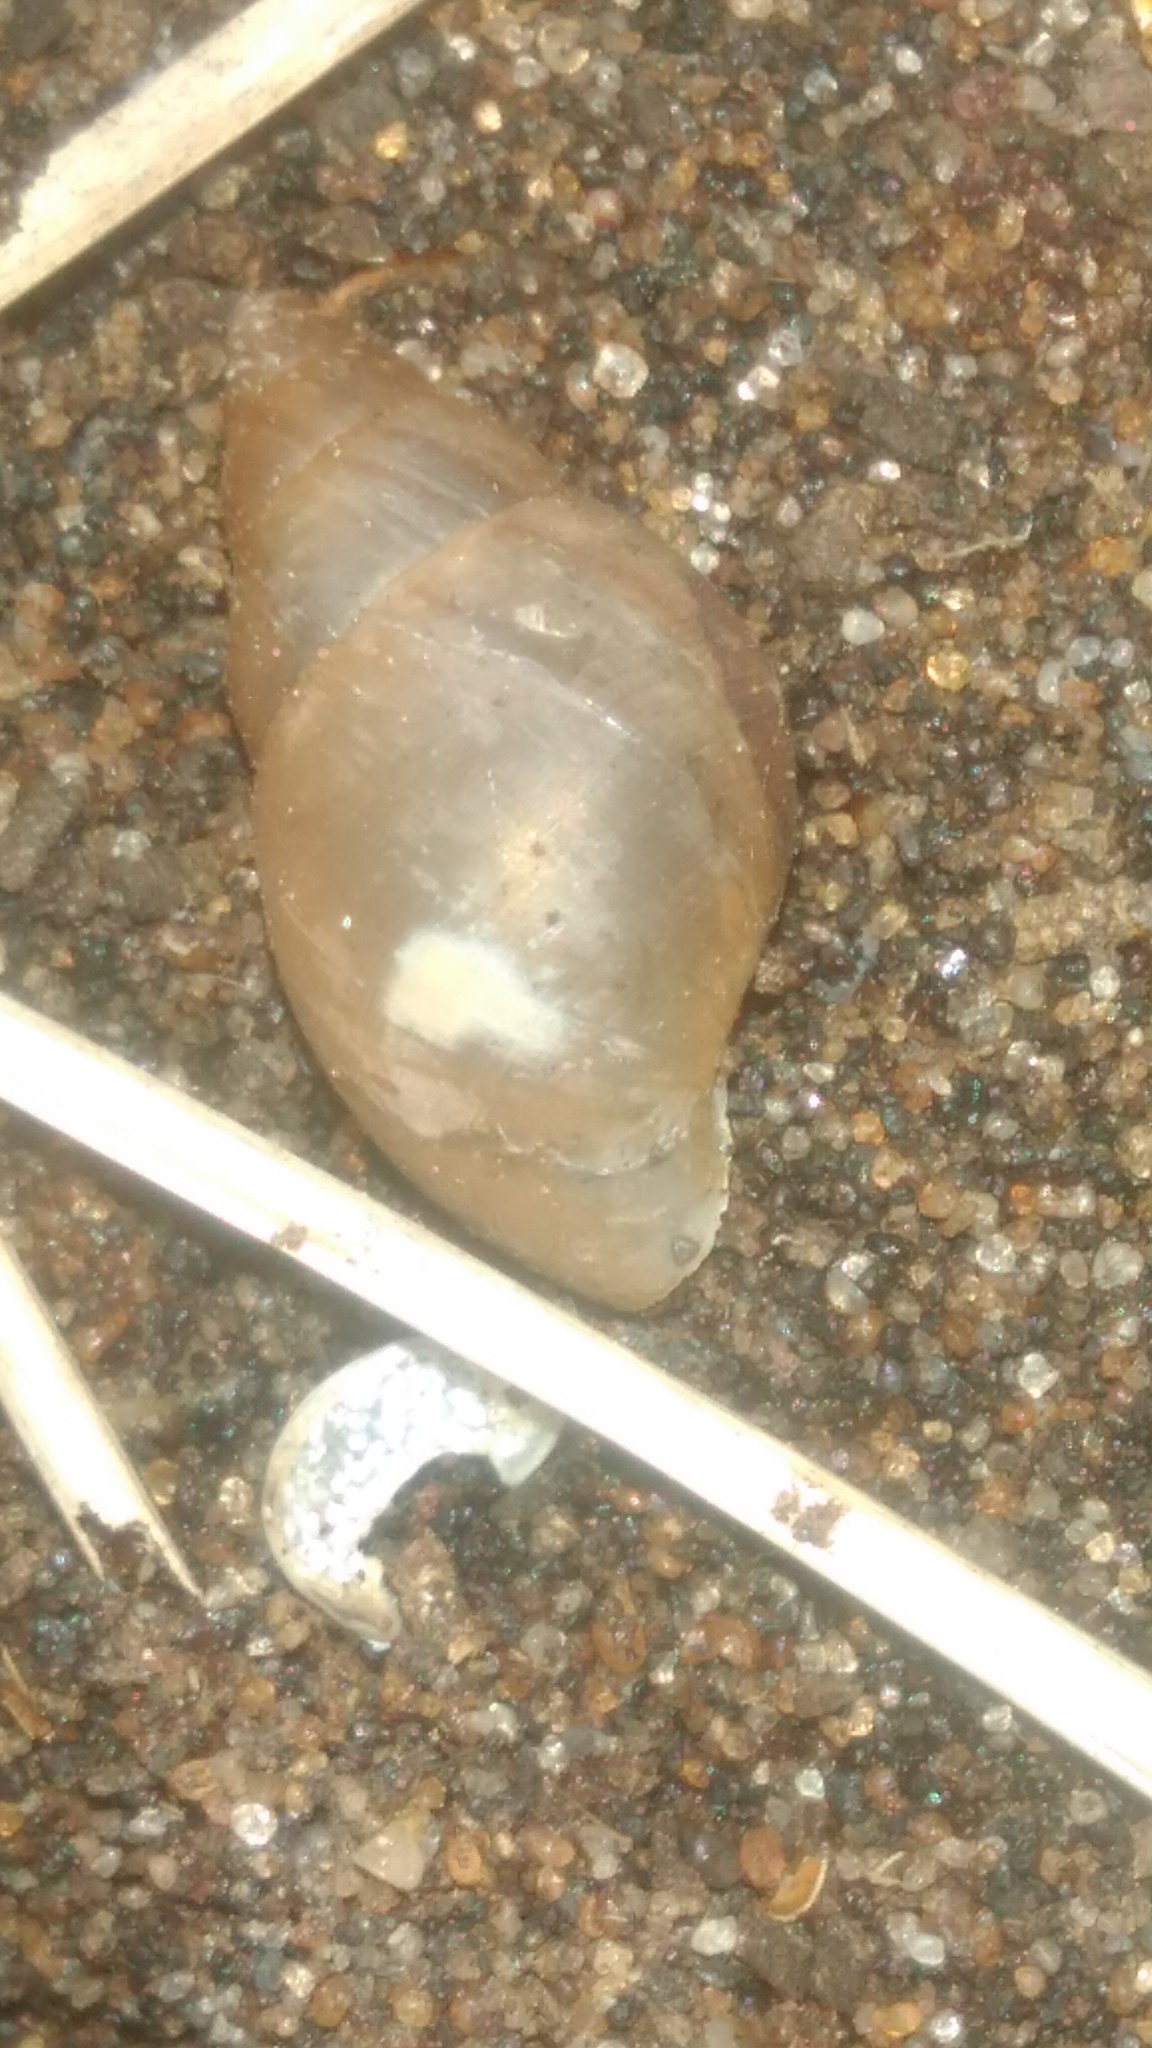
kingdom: Animalia
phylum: Mollusca
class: Gastropoda
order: Stylommatophora
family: Bulimulidae
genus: Bulimulus
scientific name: Bulimulus bonariensis
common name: Snail
